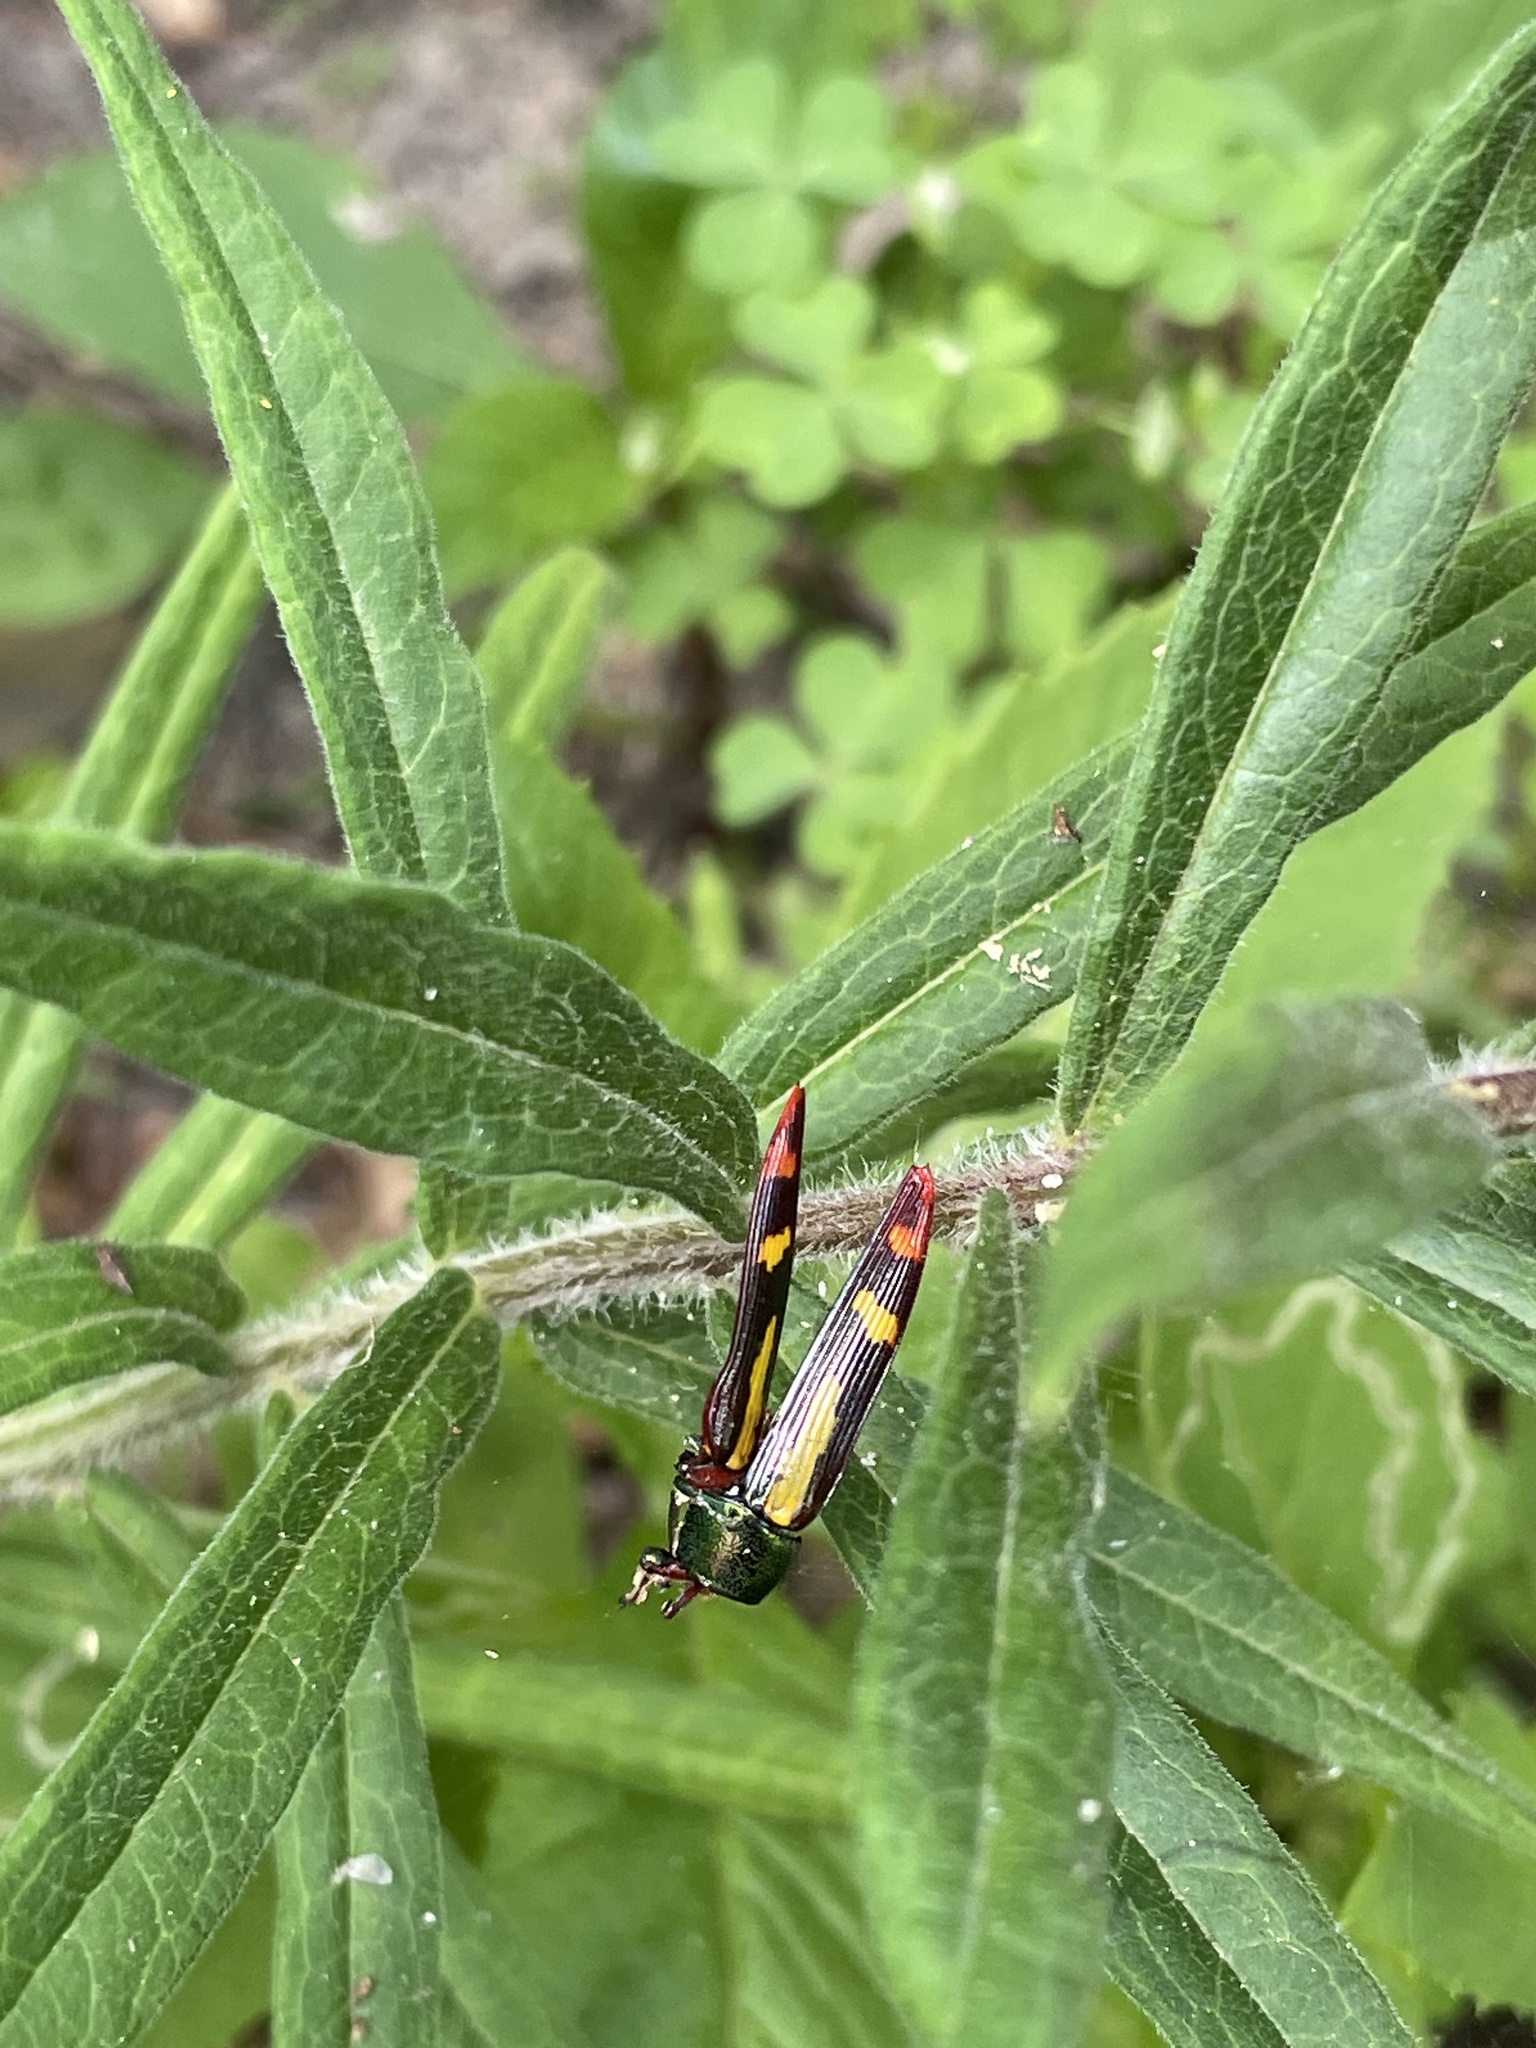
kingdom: Animalia
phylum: Arthropoda
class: Insecta
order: Coleoptera
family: Buprestidae
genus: Buprestis
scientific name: Buprestis rufipes
